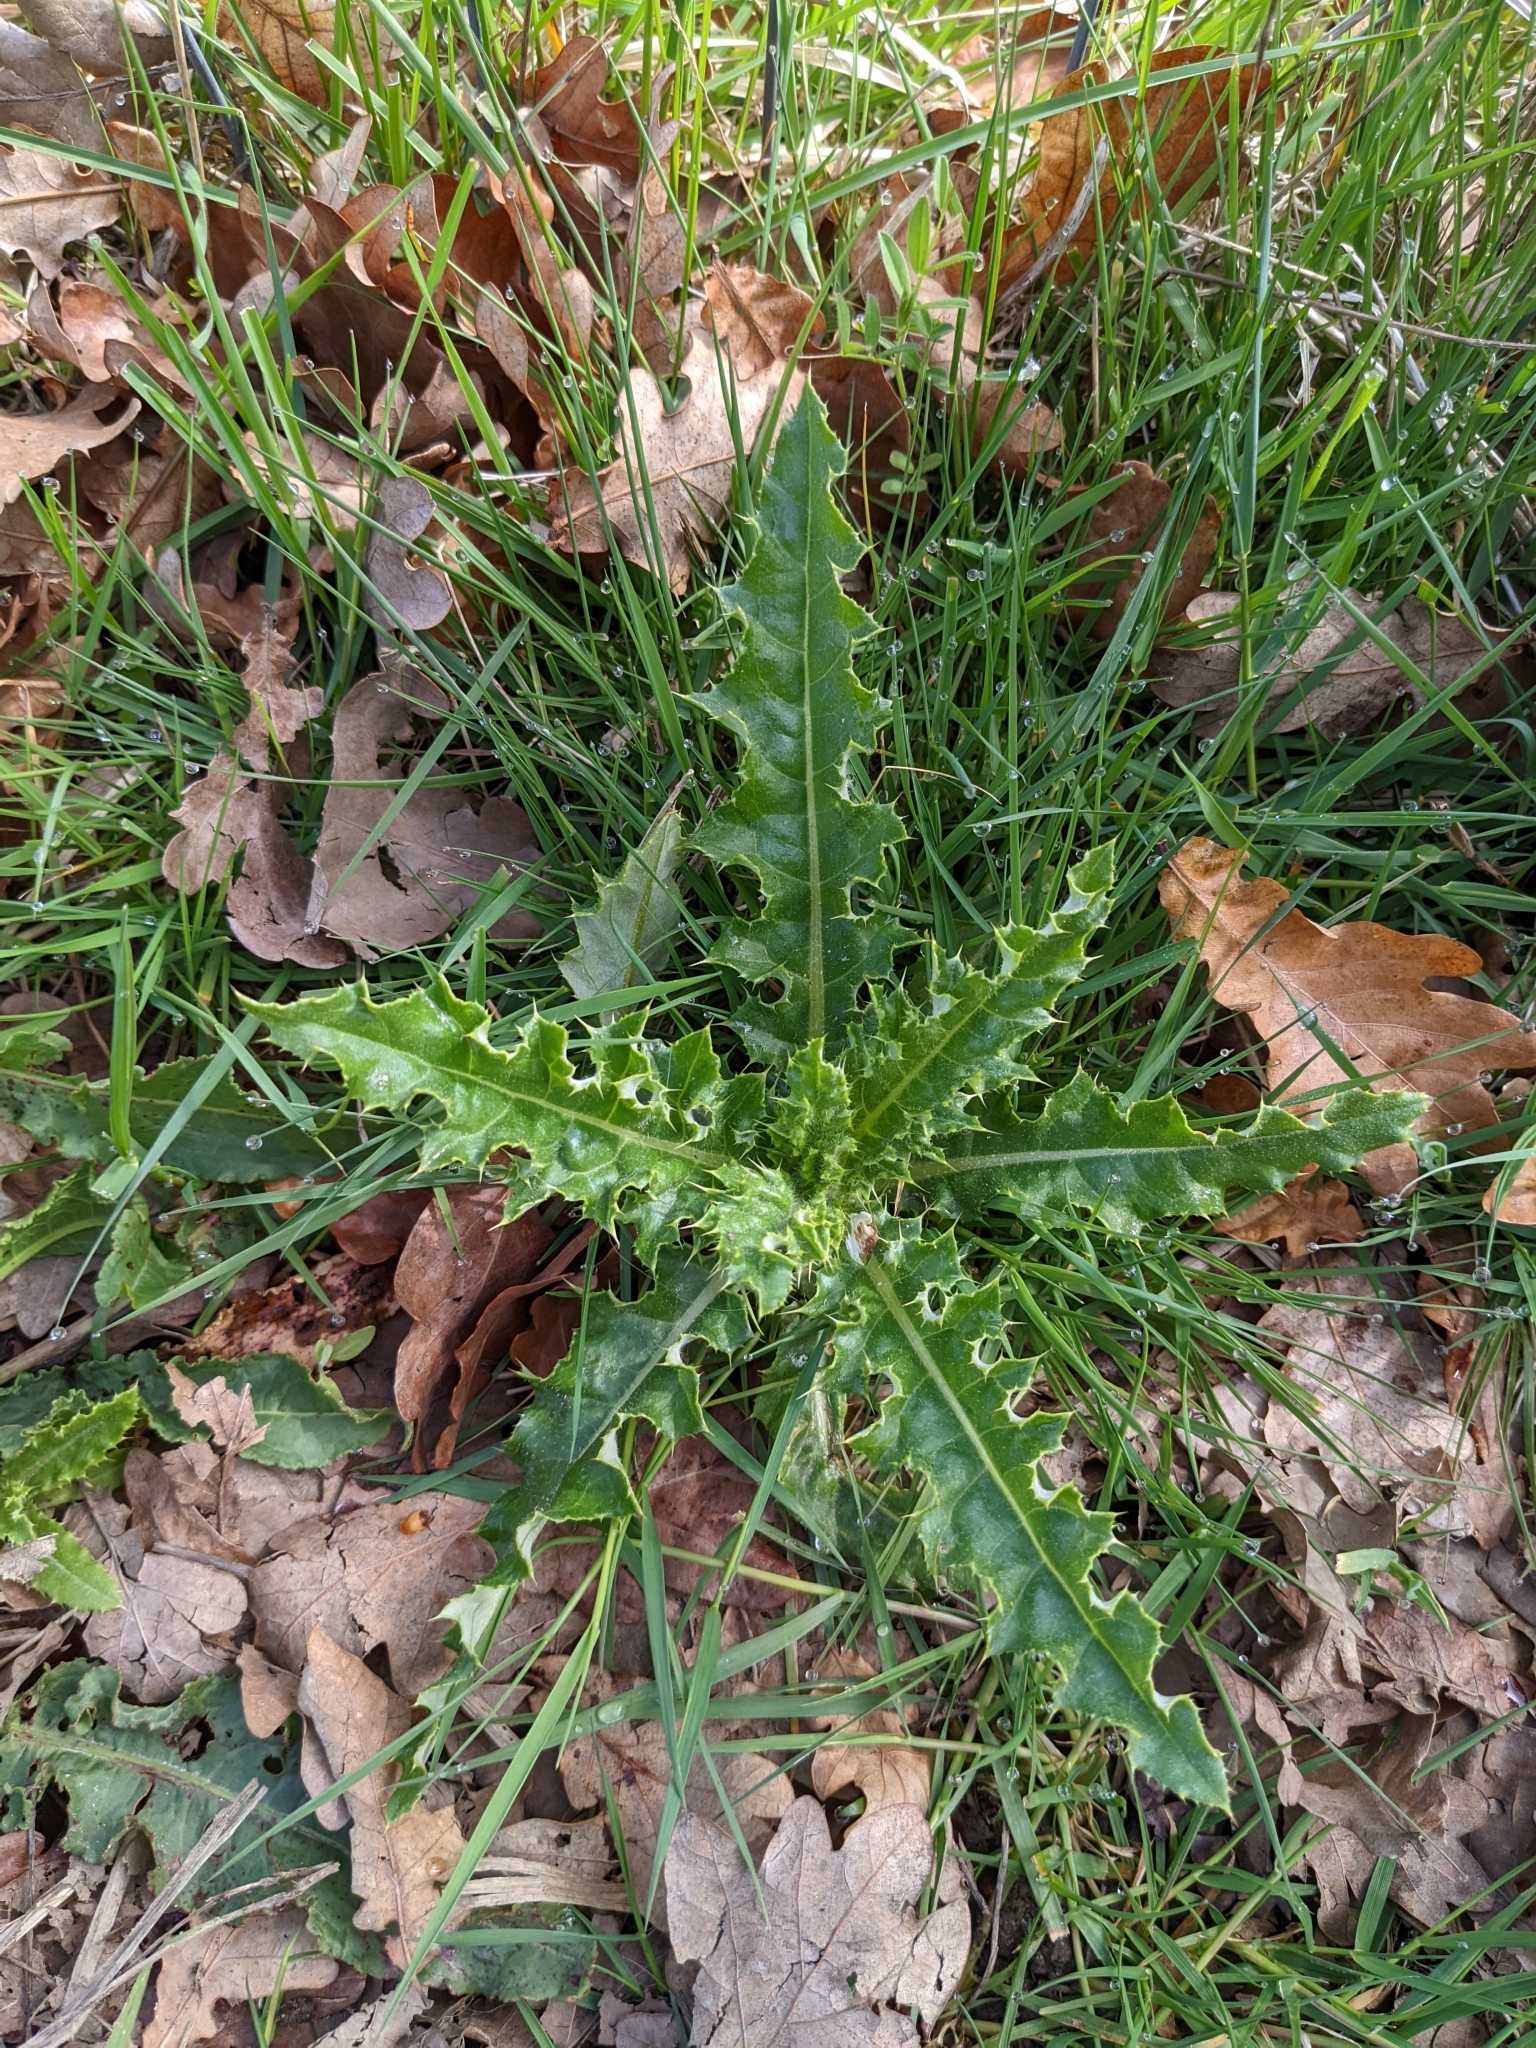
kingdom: Plantae
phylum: Tracheophyta
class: Magnoliopsida
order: Asterales
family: Asteraceae
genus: Cirsium
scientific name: Cirsium arvense
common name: Creeping thistle
